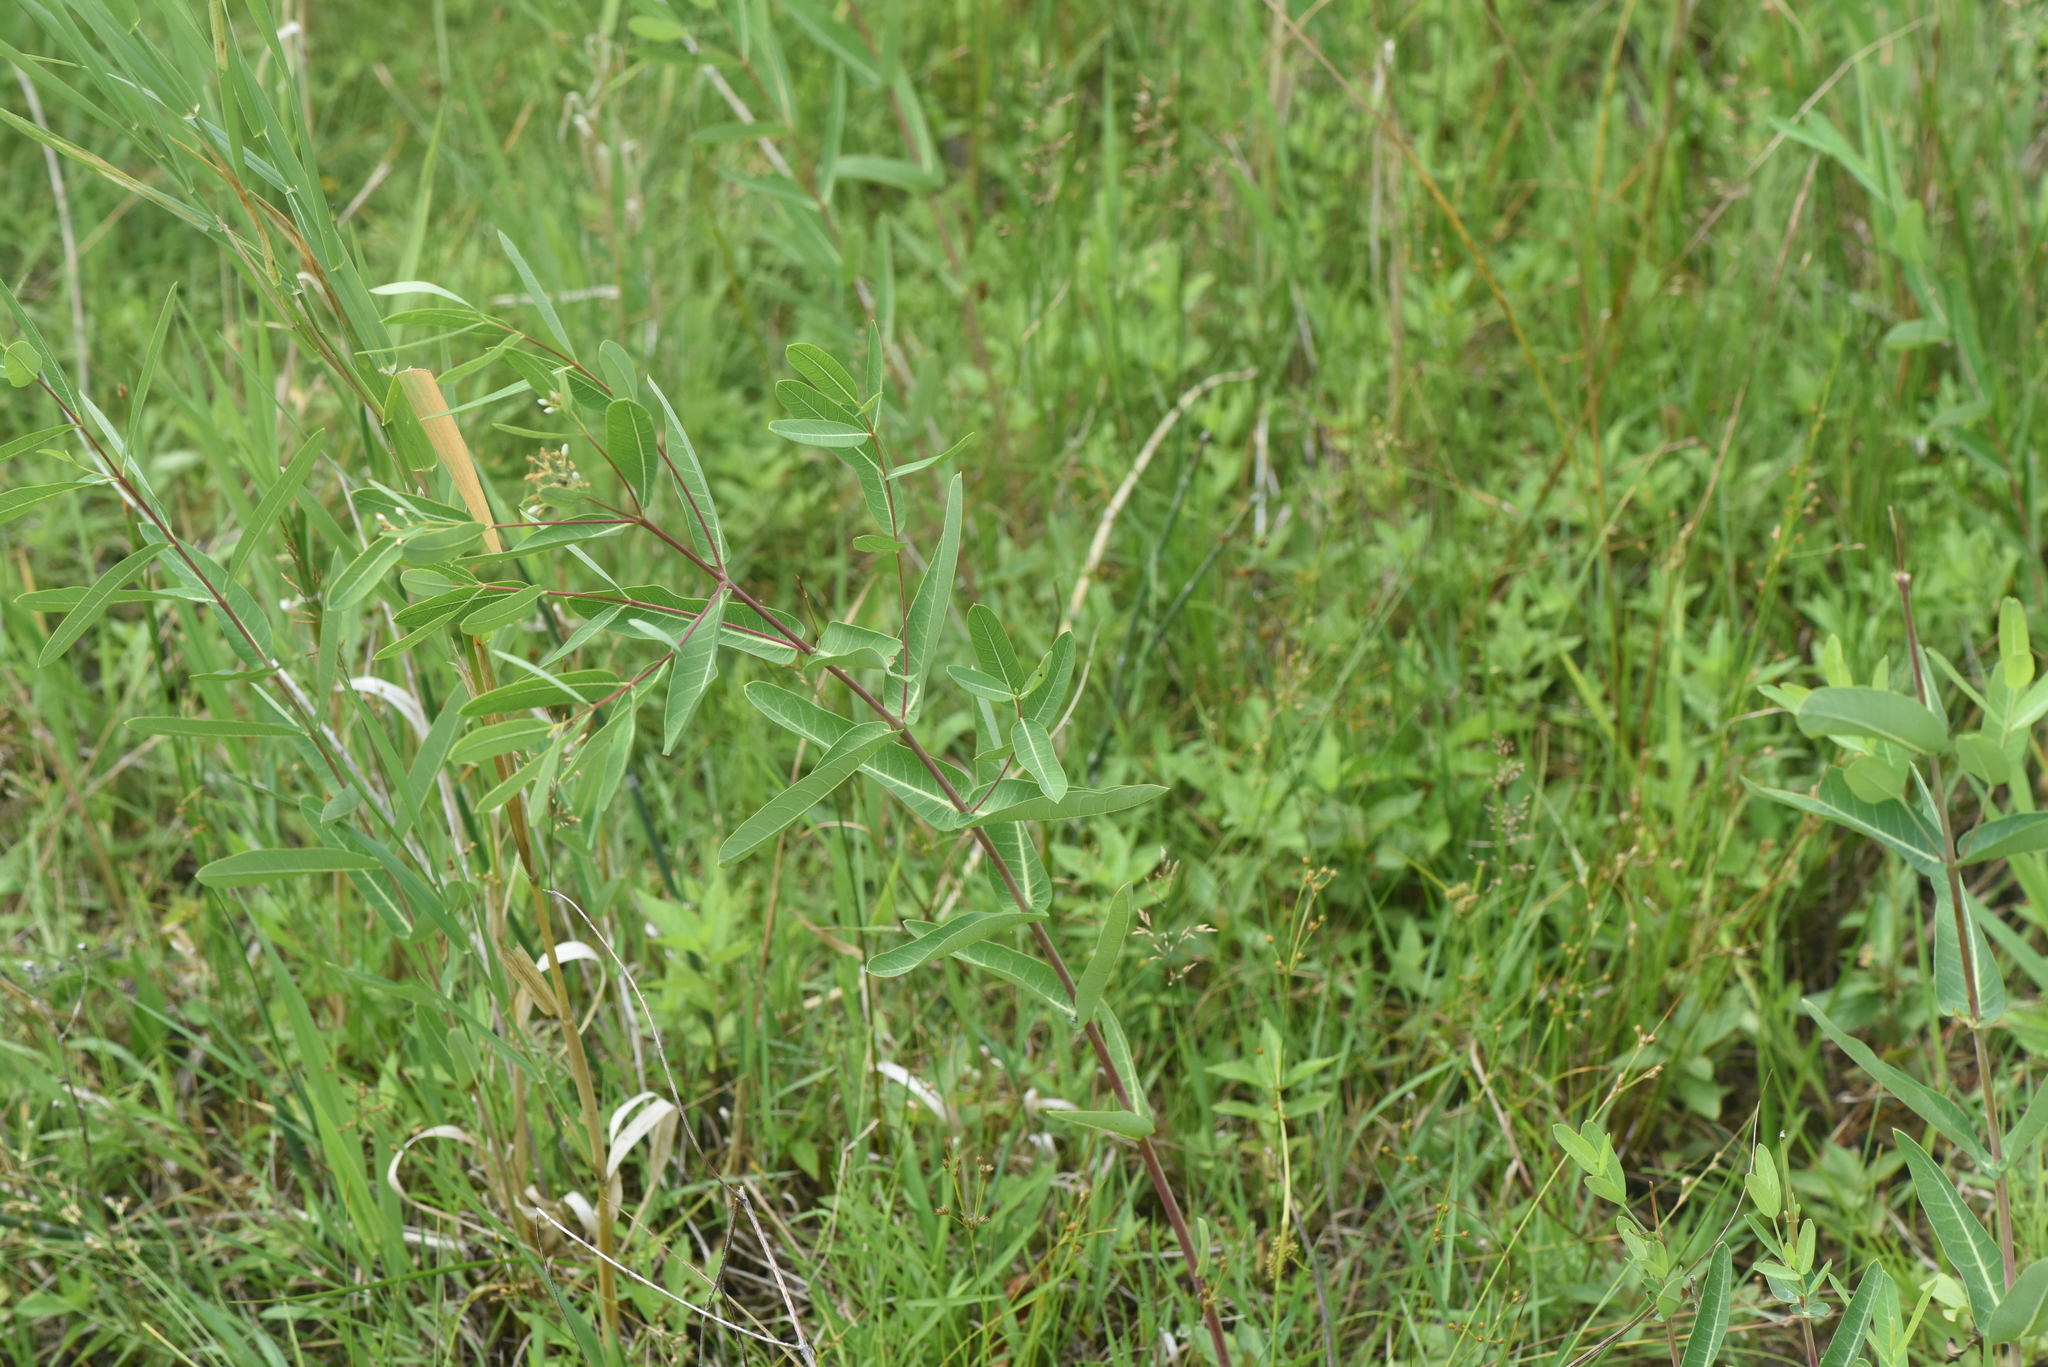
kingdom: Plantae
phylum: Tracheophyta
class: Magnoliopsida
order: Gentianales
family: Apocynaceae
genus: Apocynum
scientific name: Apocynum cannabinum
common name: Hemp dogbane
